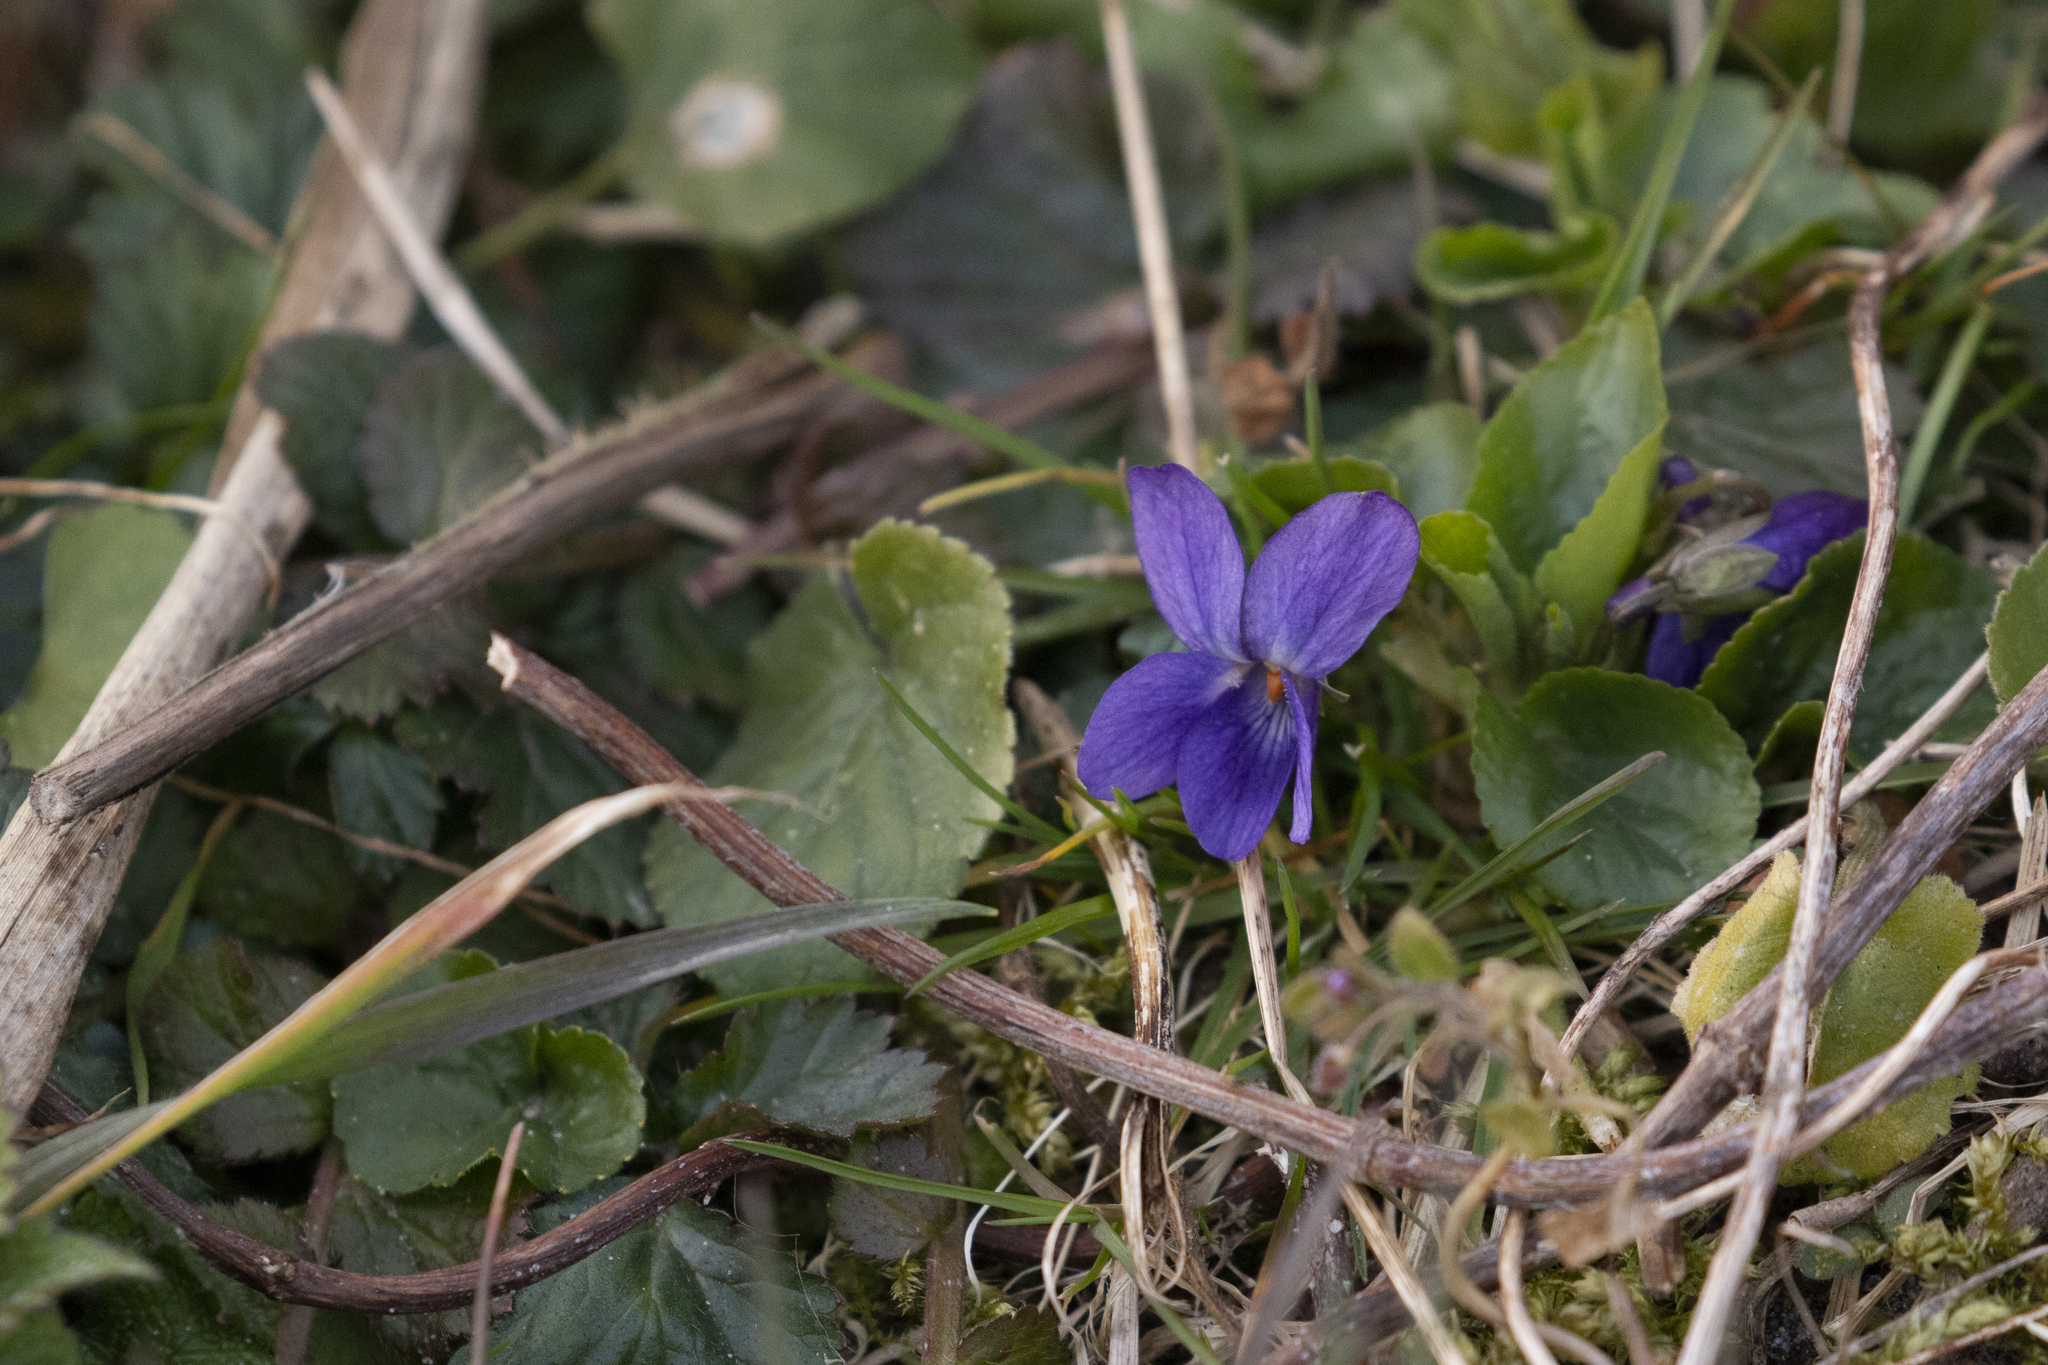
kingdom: Plantae
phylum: Tracheophyta
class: Magnoliopsida
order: Malpighiales
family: Violaceae
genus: Viola
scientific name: Viola odorata
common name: Sweet violet
